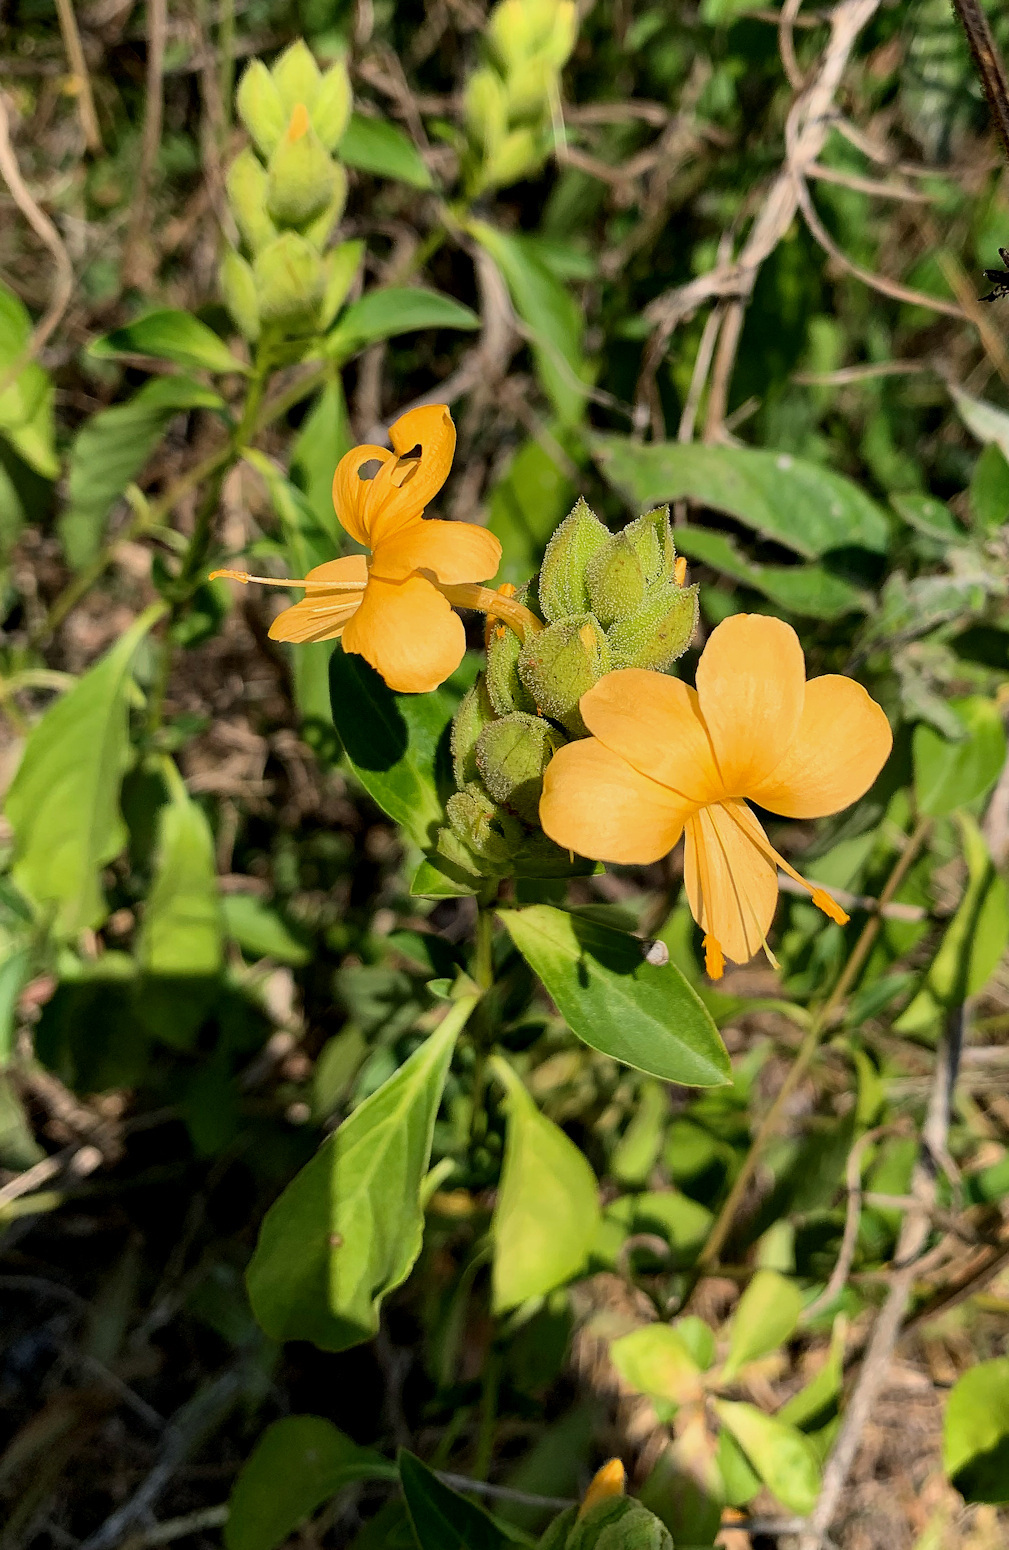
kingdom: Plantae
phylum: Tracheophyta
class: Magnoliopsida
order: Lamiales
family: Acanthaceae
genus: Barleria
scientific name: Barleria crossandriformis
